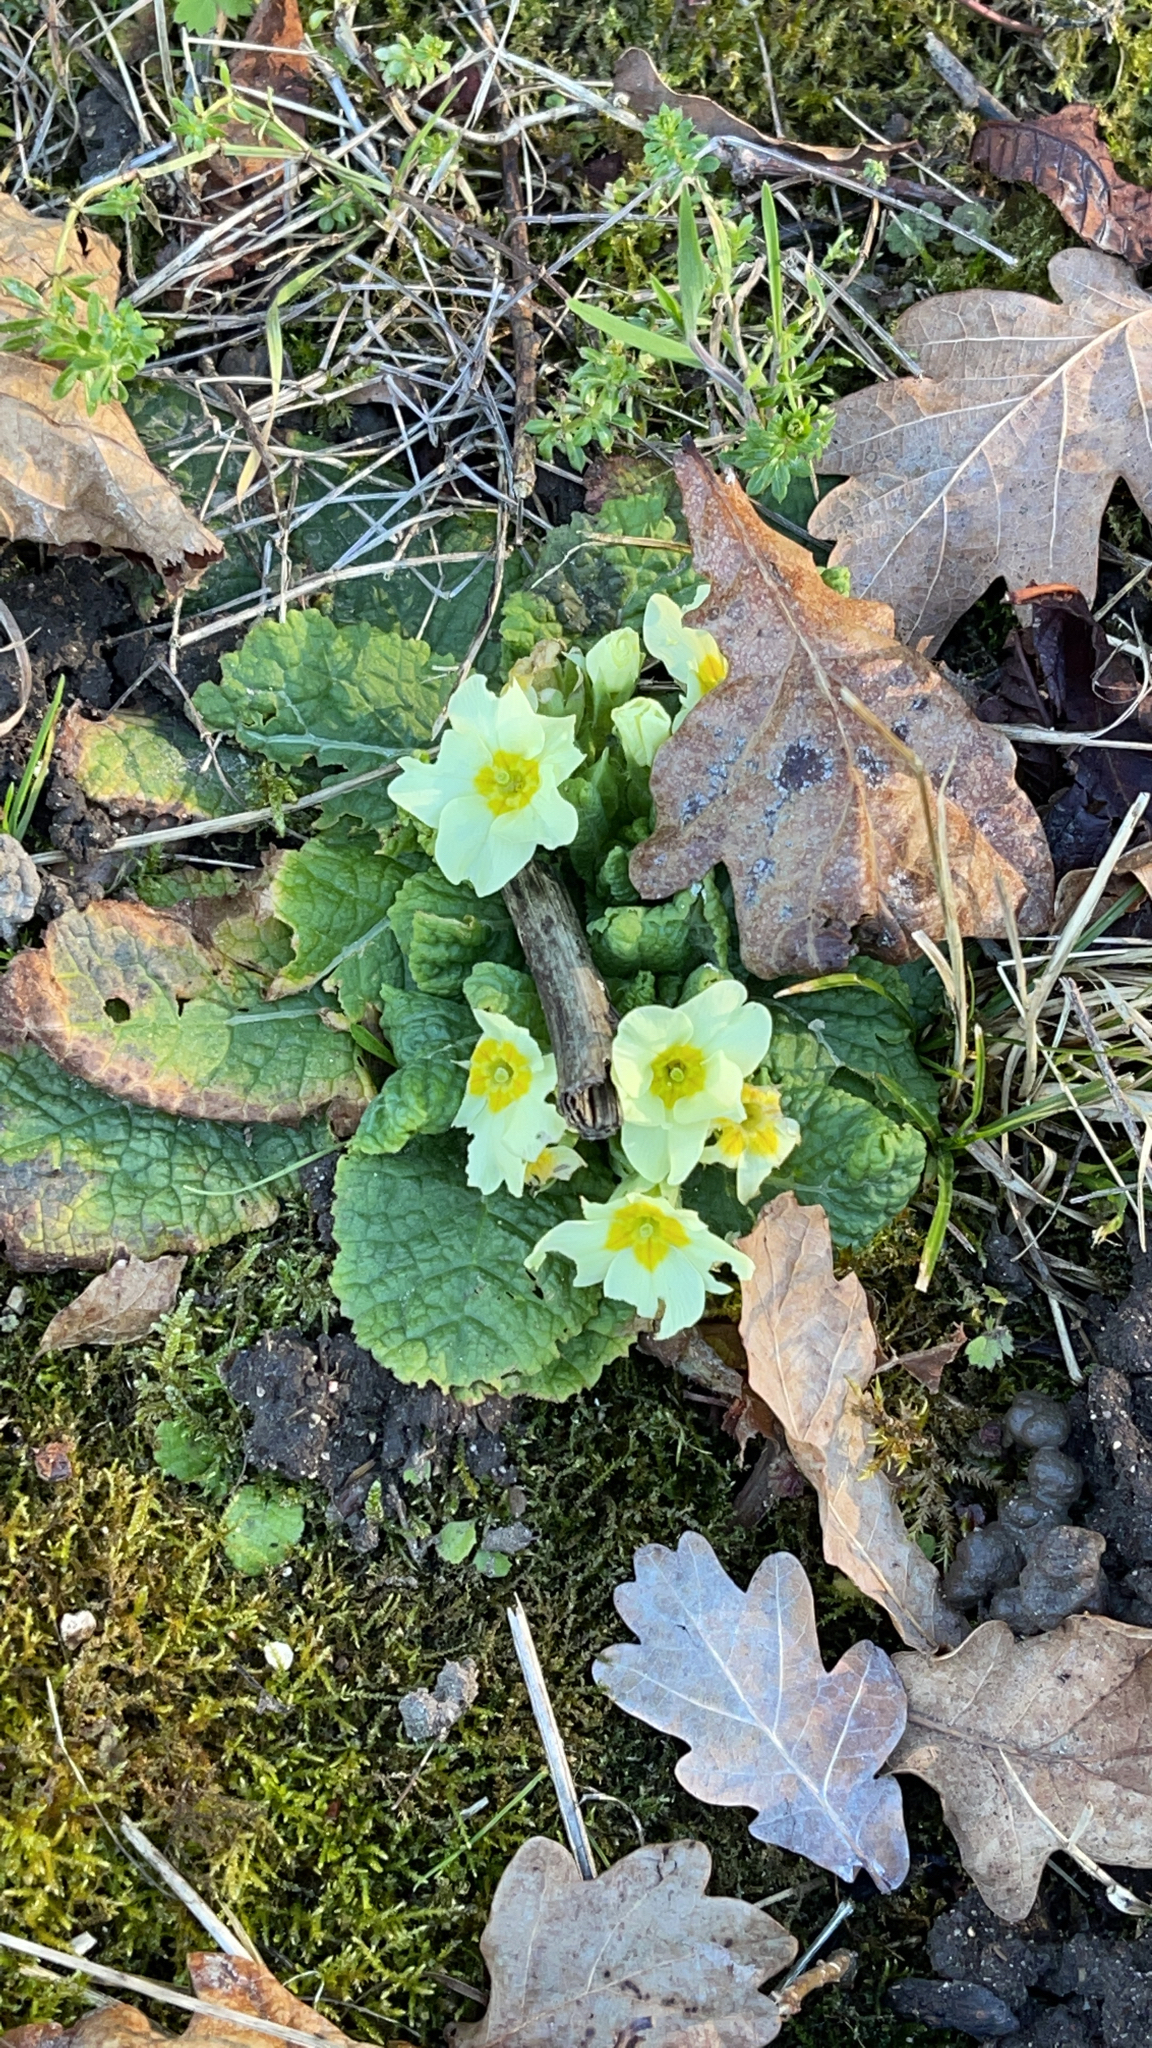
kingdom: Plantae
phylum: Tracheophyta
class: Magnoliopsida
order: Ericales
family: Primulaceae
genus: Primula
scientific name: Primula vulgaris
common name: Primrose
